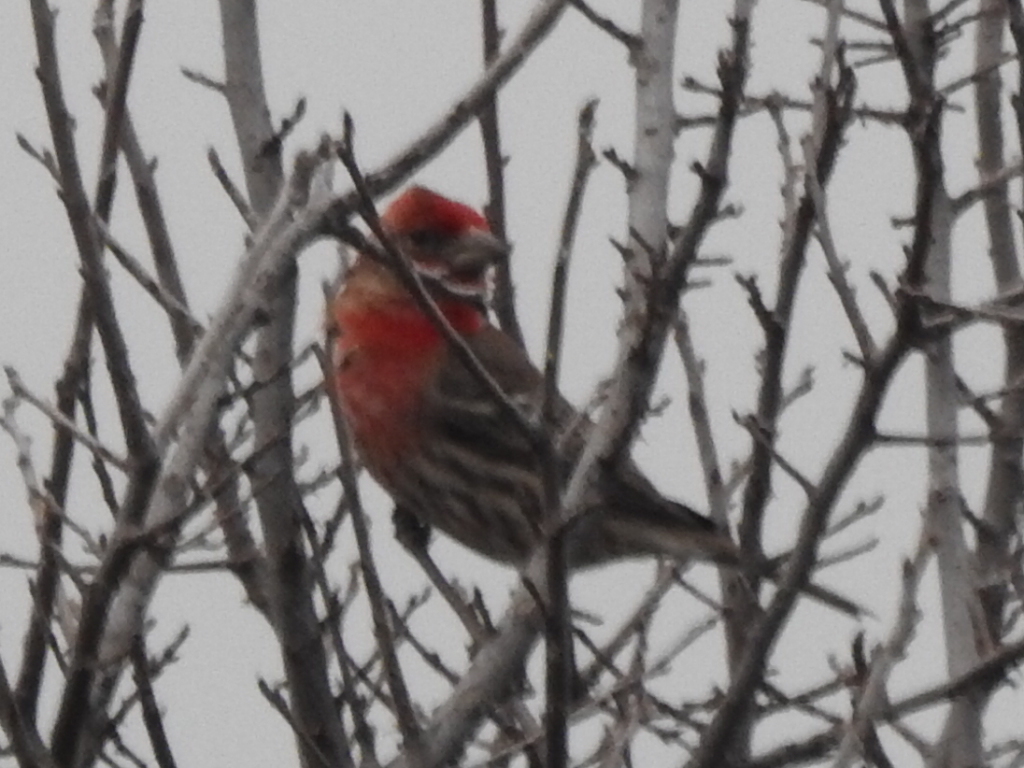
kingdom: Animalia
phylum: Chordata
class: Aves
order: Passeriformes
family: Fringillidae
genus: Haemorhous
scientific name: Haemorhous mexicanus
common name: House finch
